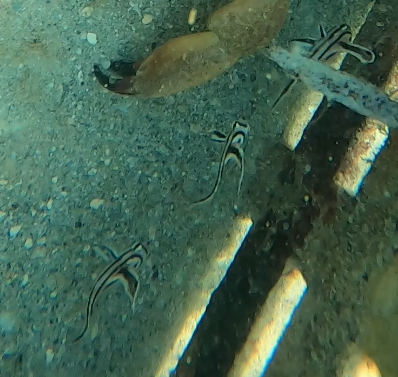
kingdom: Animalia
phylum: Chordata
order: Perciformes
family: Sciaenidae
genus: Pareques
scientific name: Pareques acuminatus
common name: High-hat
